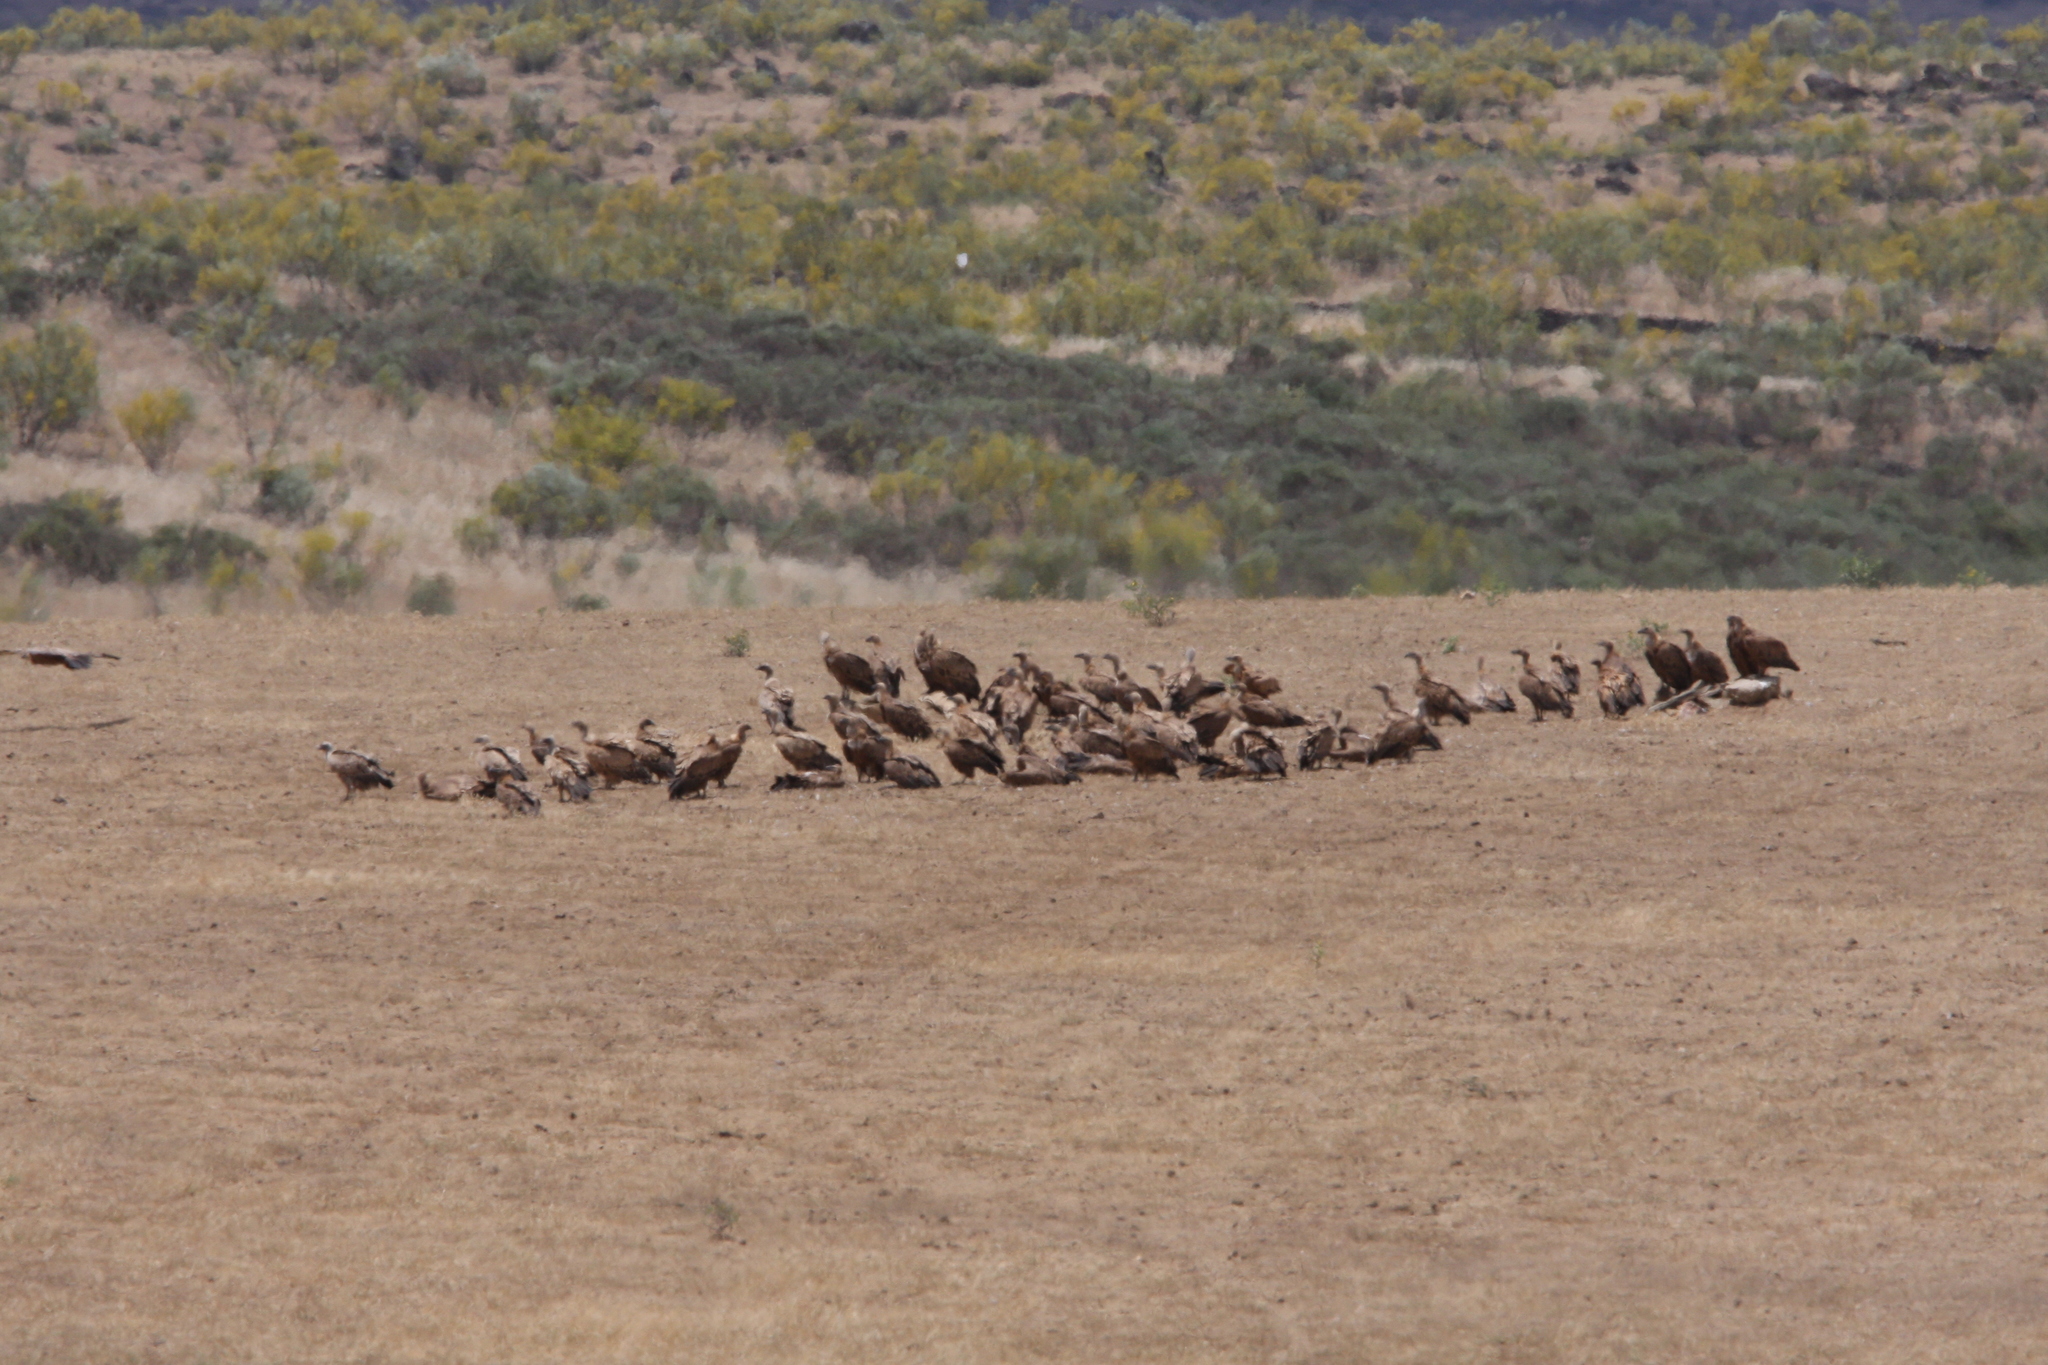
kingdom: Animalia
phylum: Chordata
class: Aves
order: Accipitriformes
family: Accipitridae
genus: Gyps
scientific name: Gyps fulvus
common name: Griffon vulture
